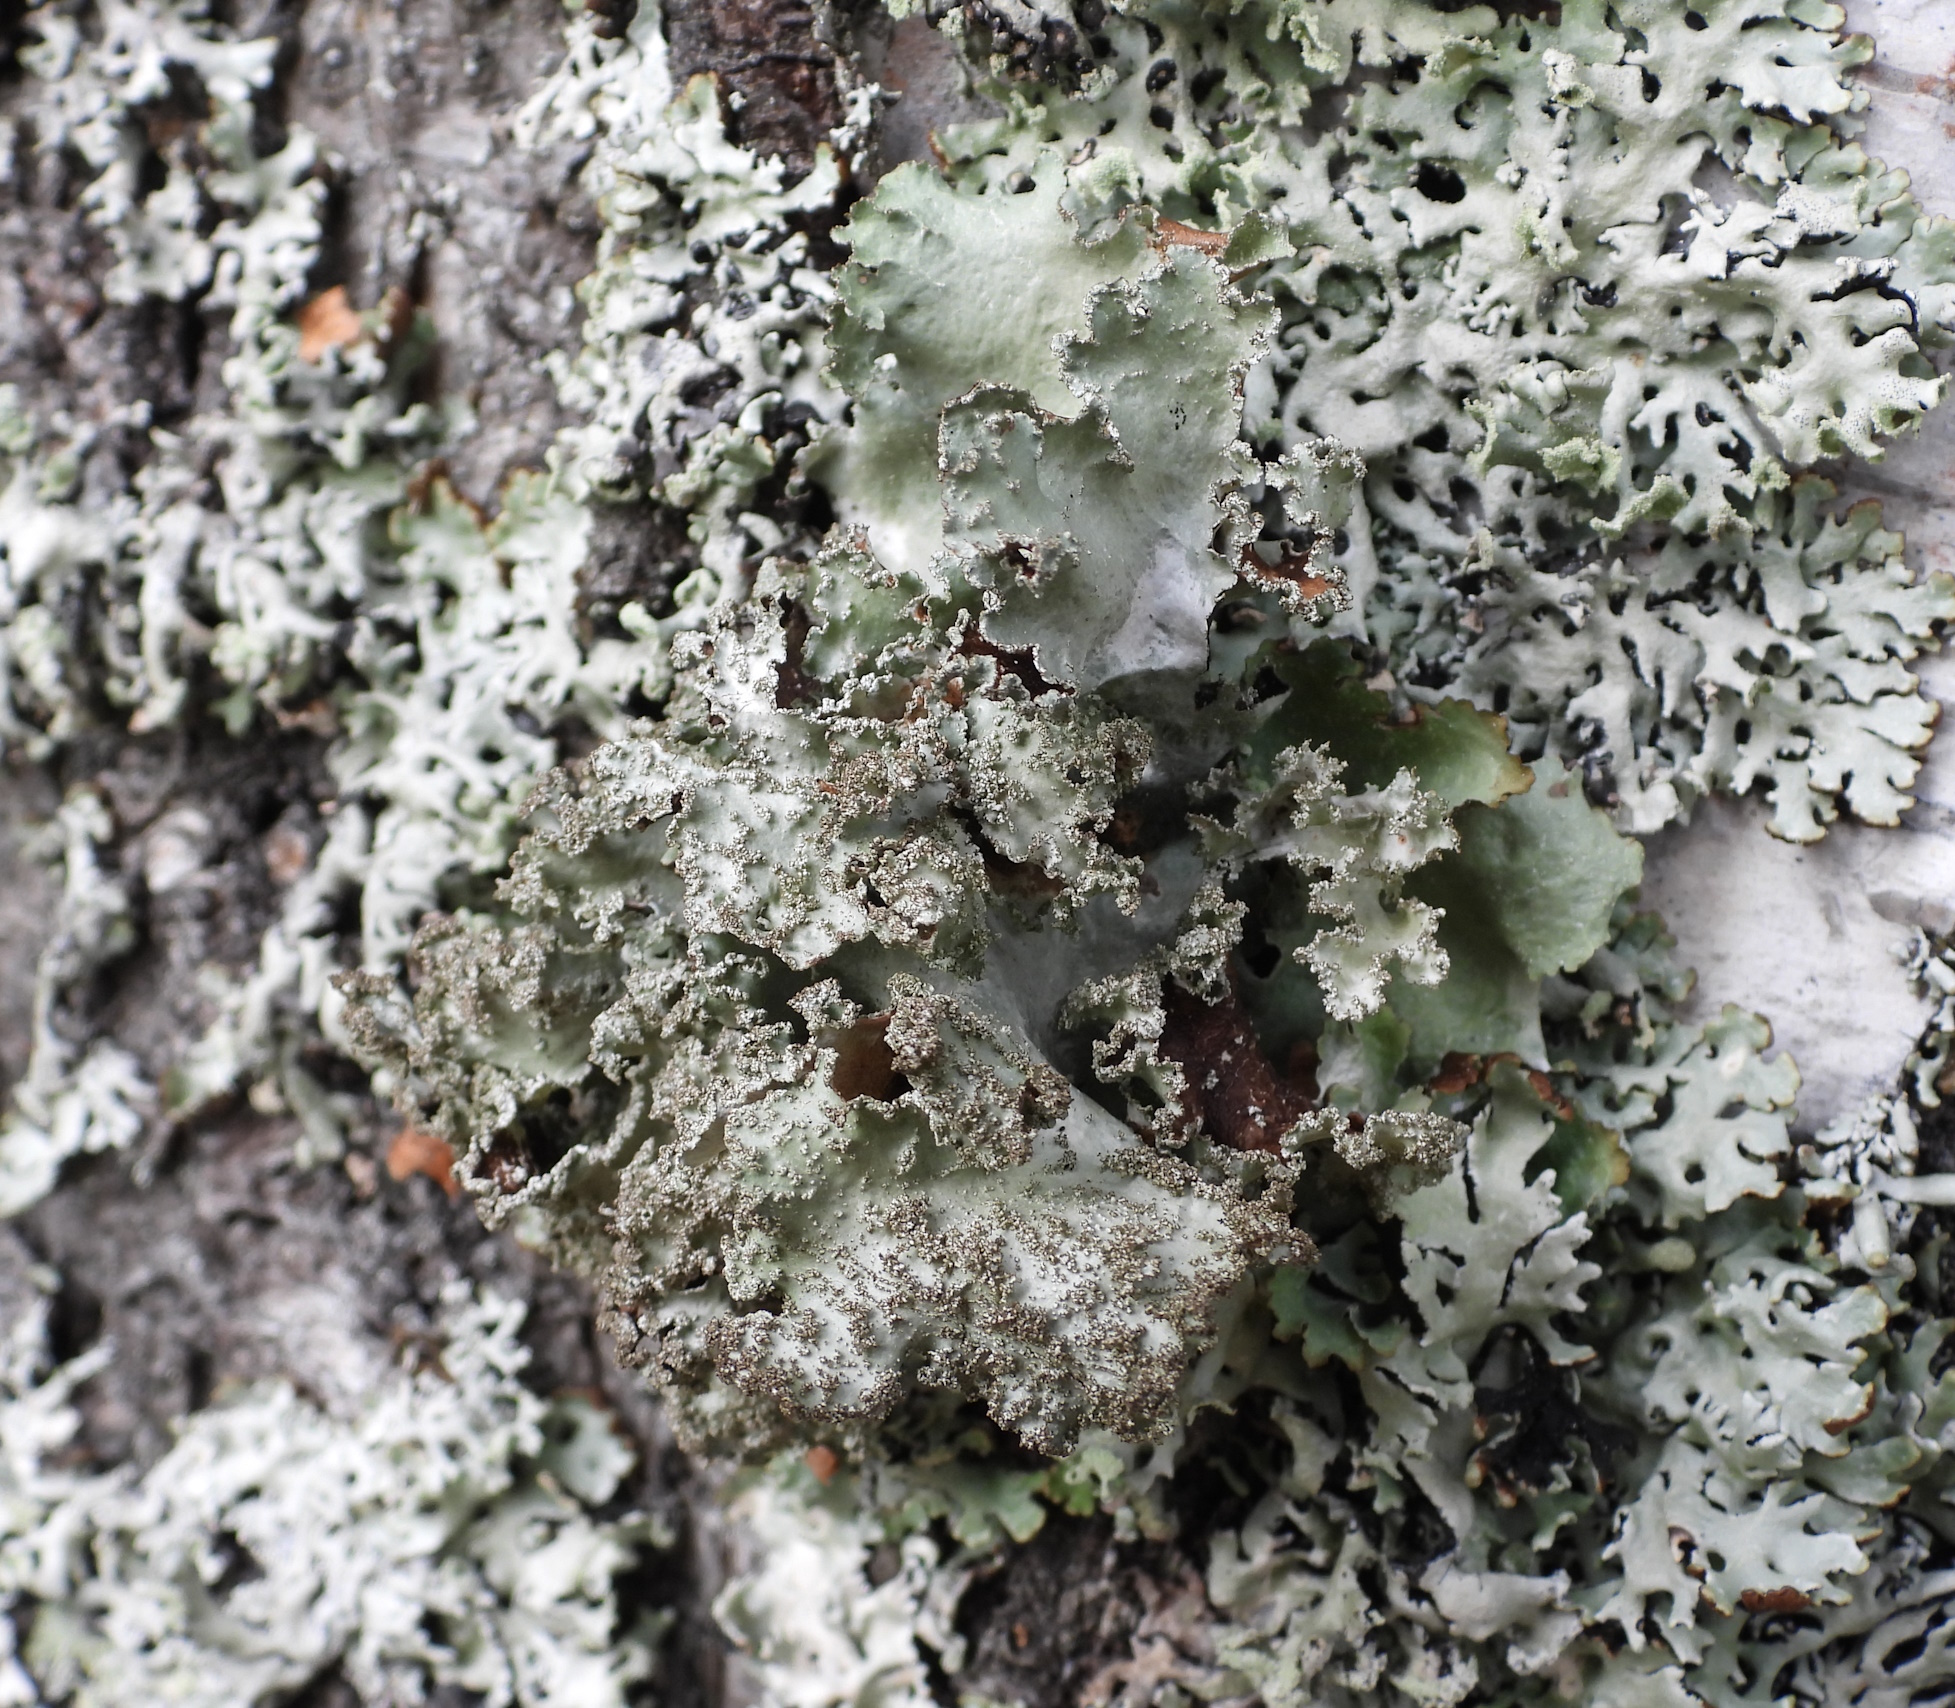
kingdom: Fungi
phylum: Ascomycota
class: Lecanoromycetes
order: Lecanorales
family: Parmeliaceae
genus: Platismatia
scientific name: Platismatia glauca
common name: Varied rag lichen
